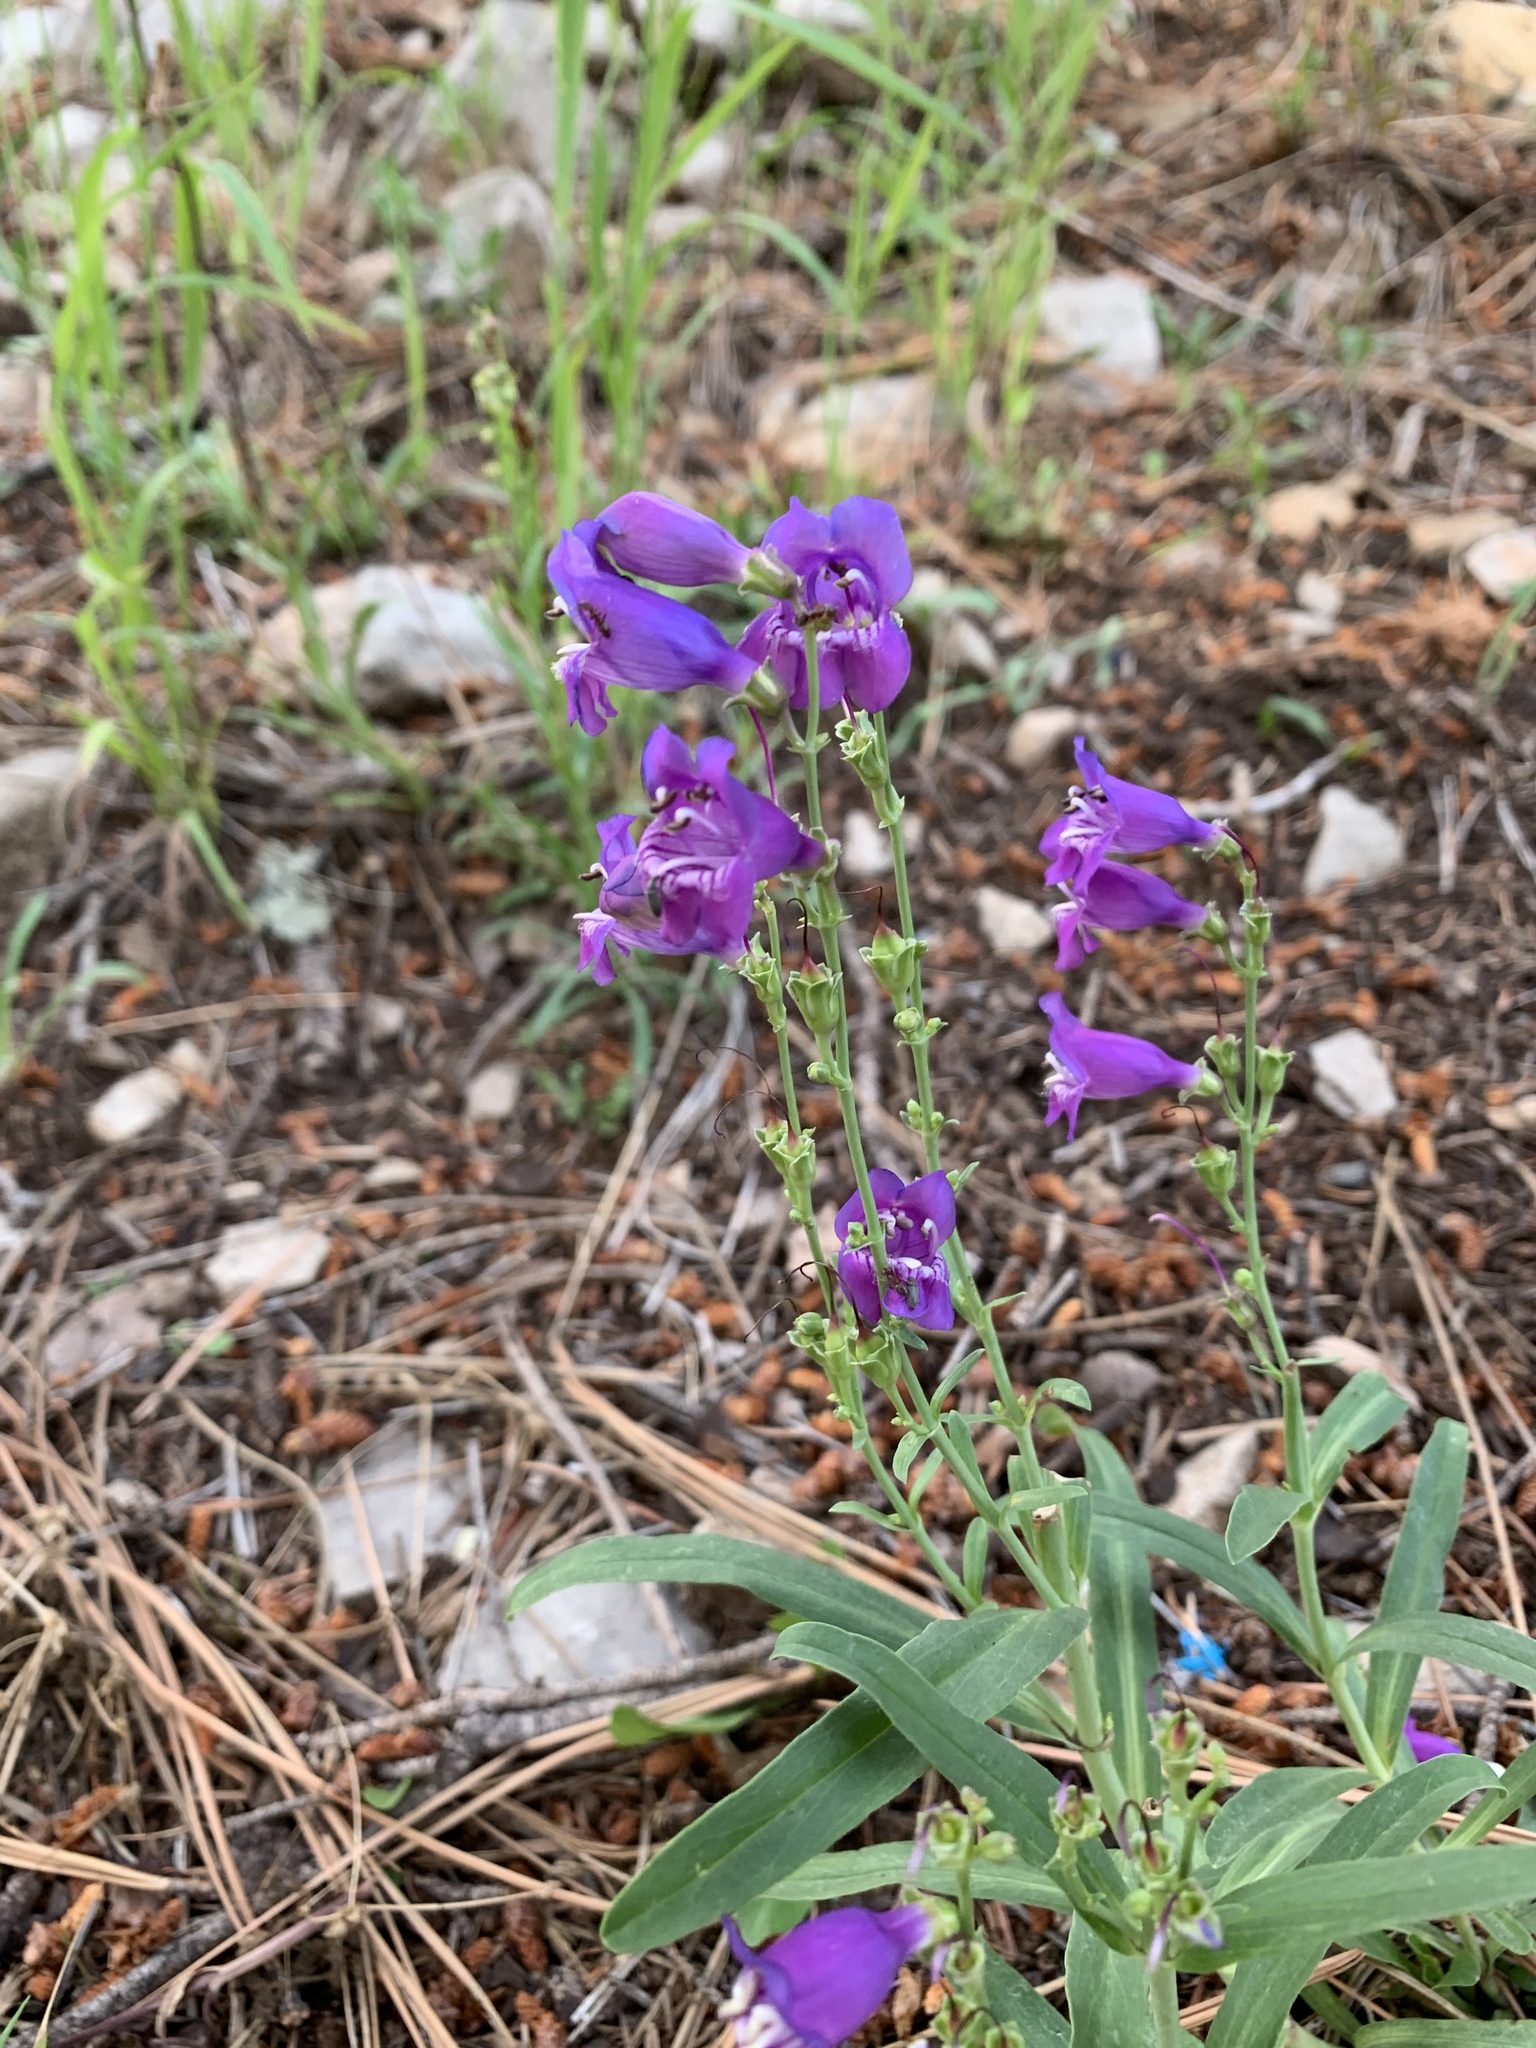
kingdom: Plantae
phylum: Tracheophyta
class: Magnoliopsida
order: Lamiales
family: Plantaginaceae
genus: Penstemon
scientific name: Penstemon neomexicanus
